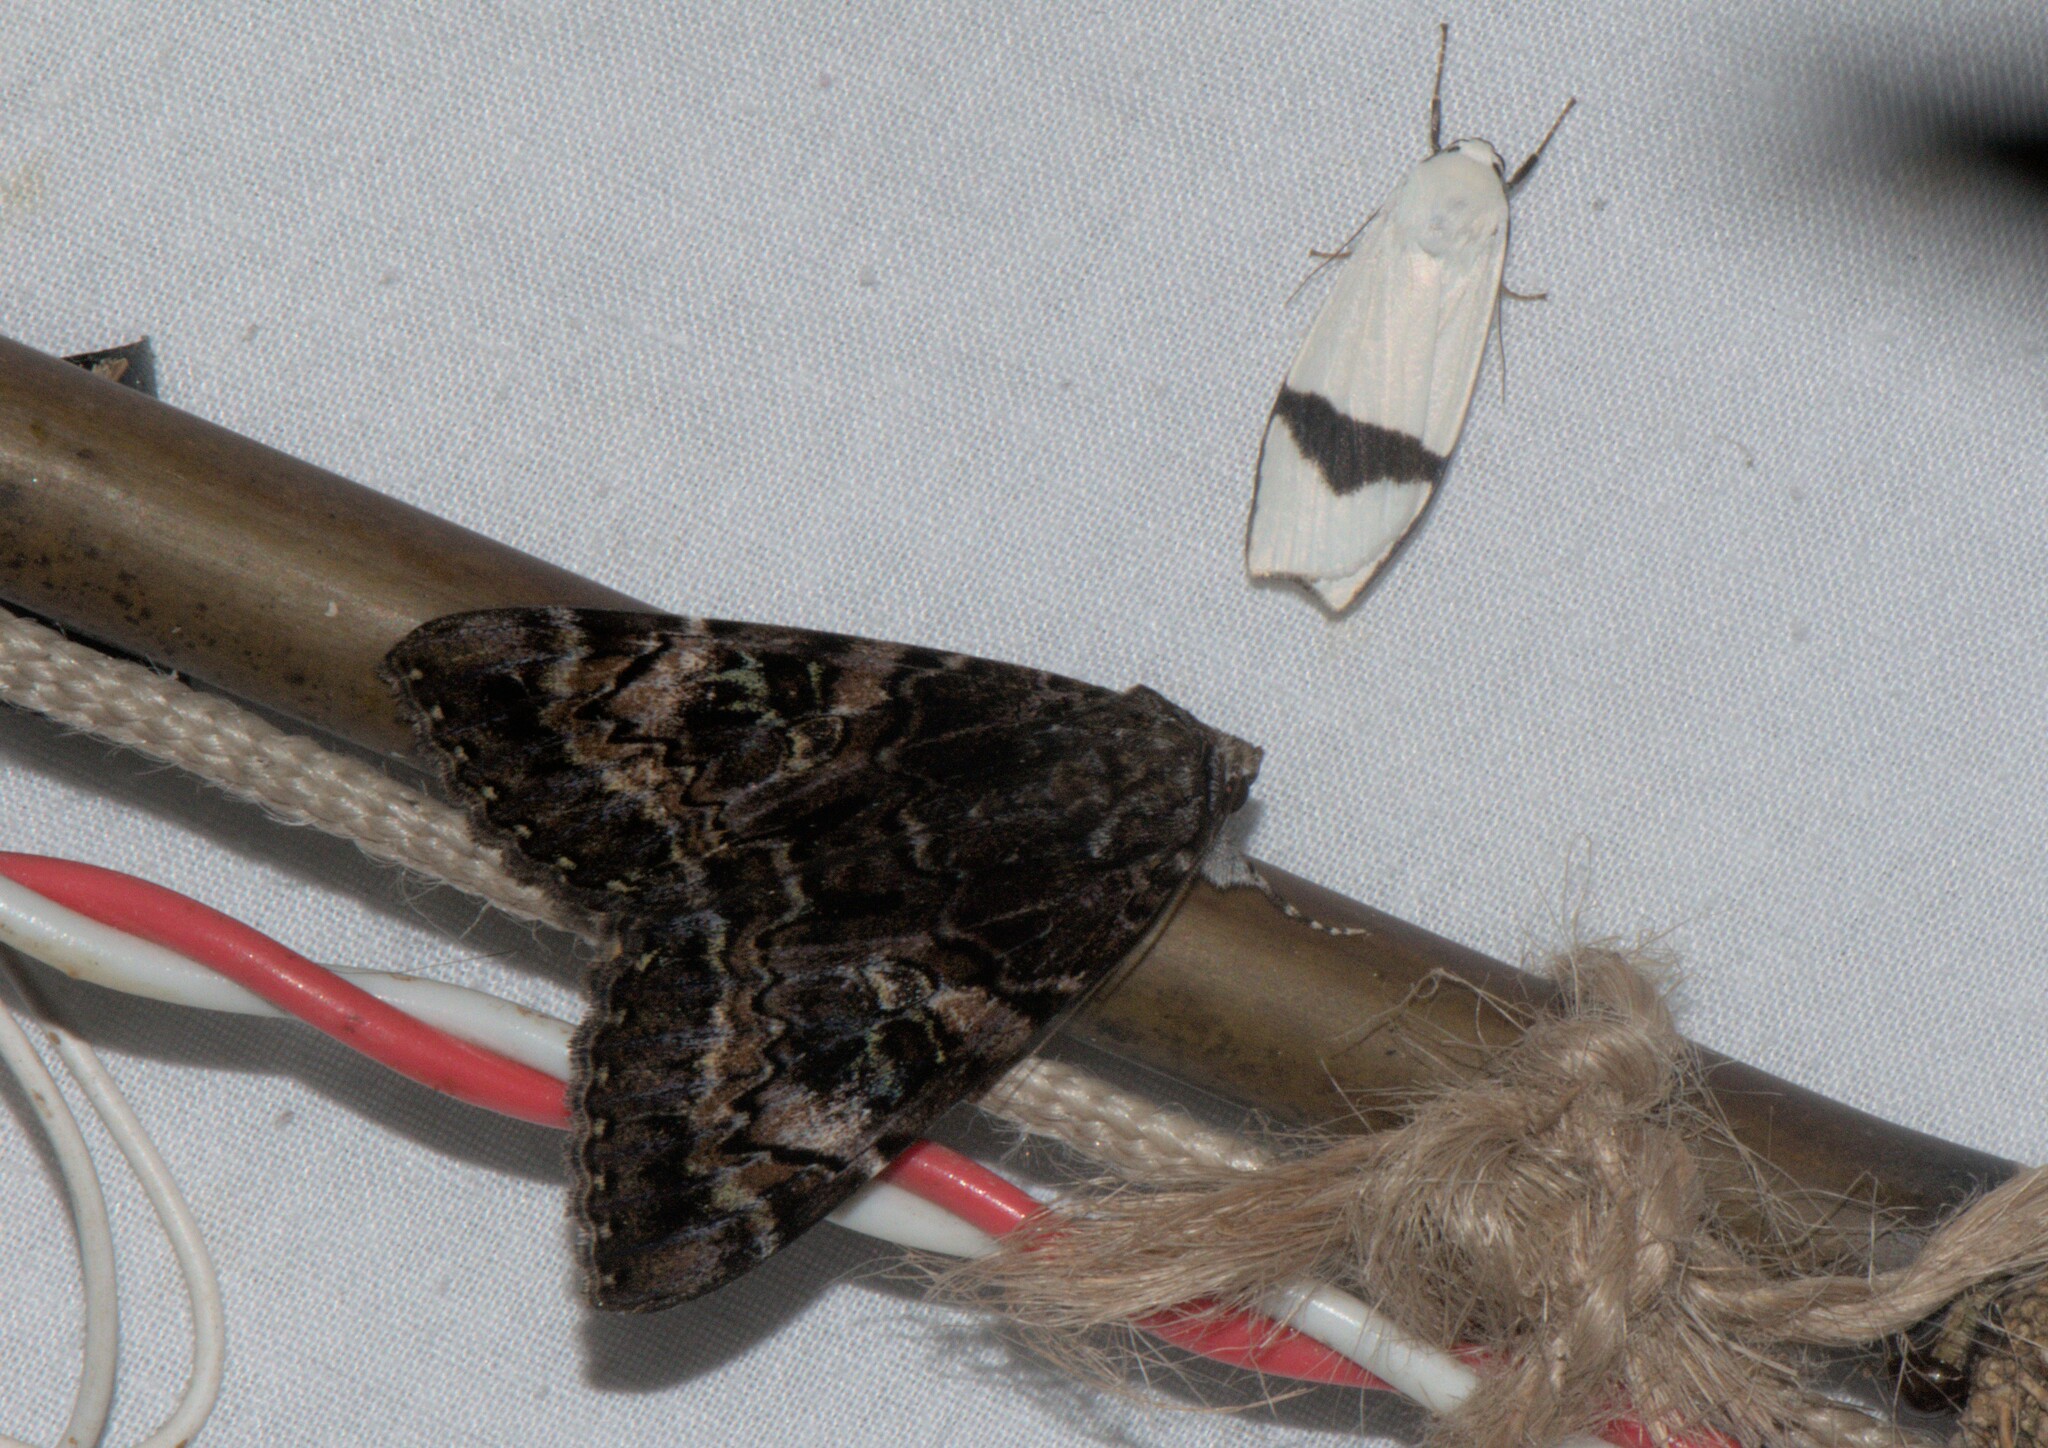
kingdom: Animalia
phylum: Arthropoda
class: Insecta
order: Lepidoptera
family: Erebidae
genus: Vamuna
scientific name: Vamuna remelana
